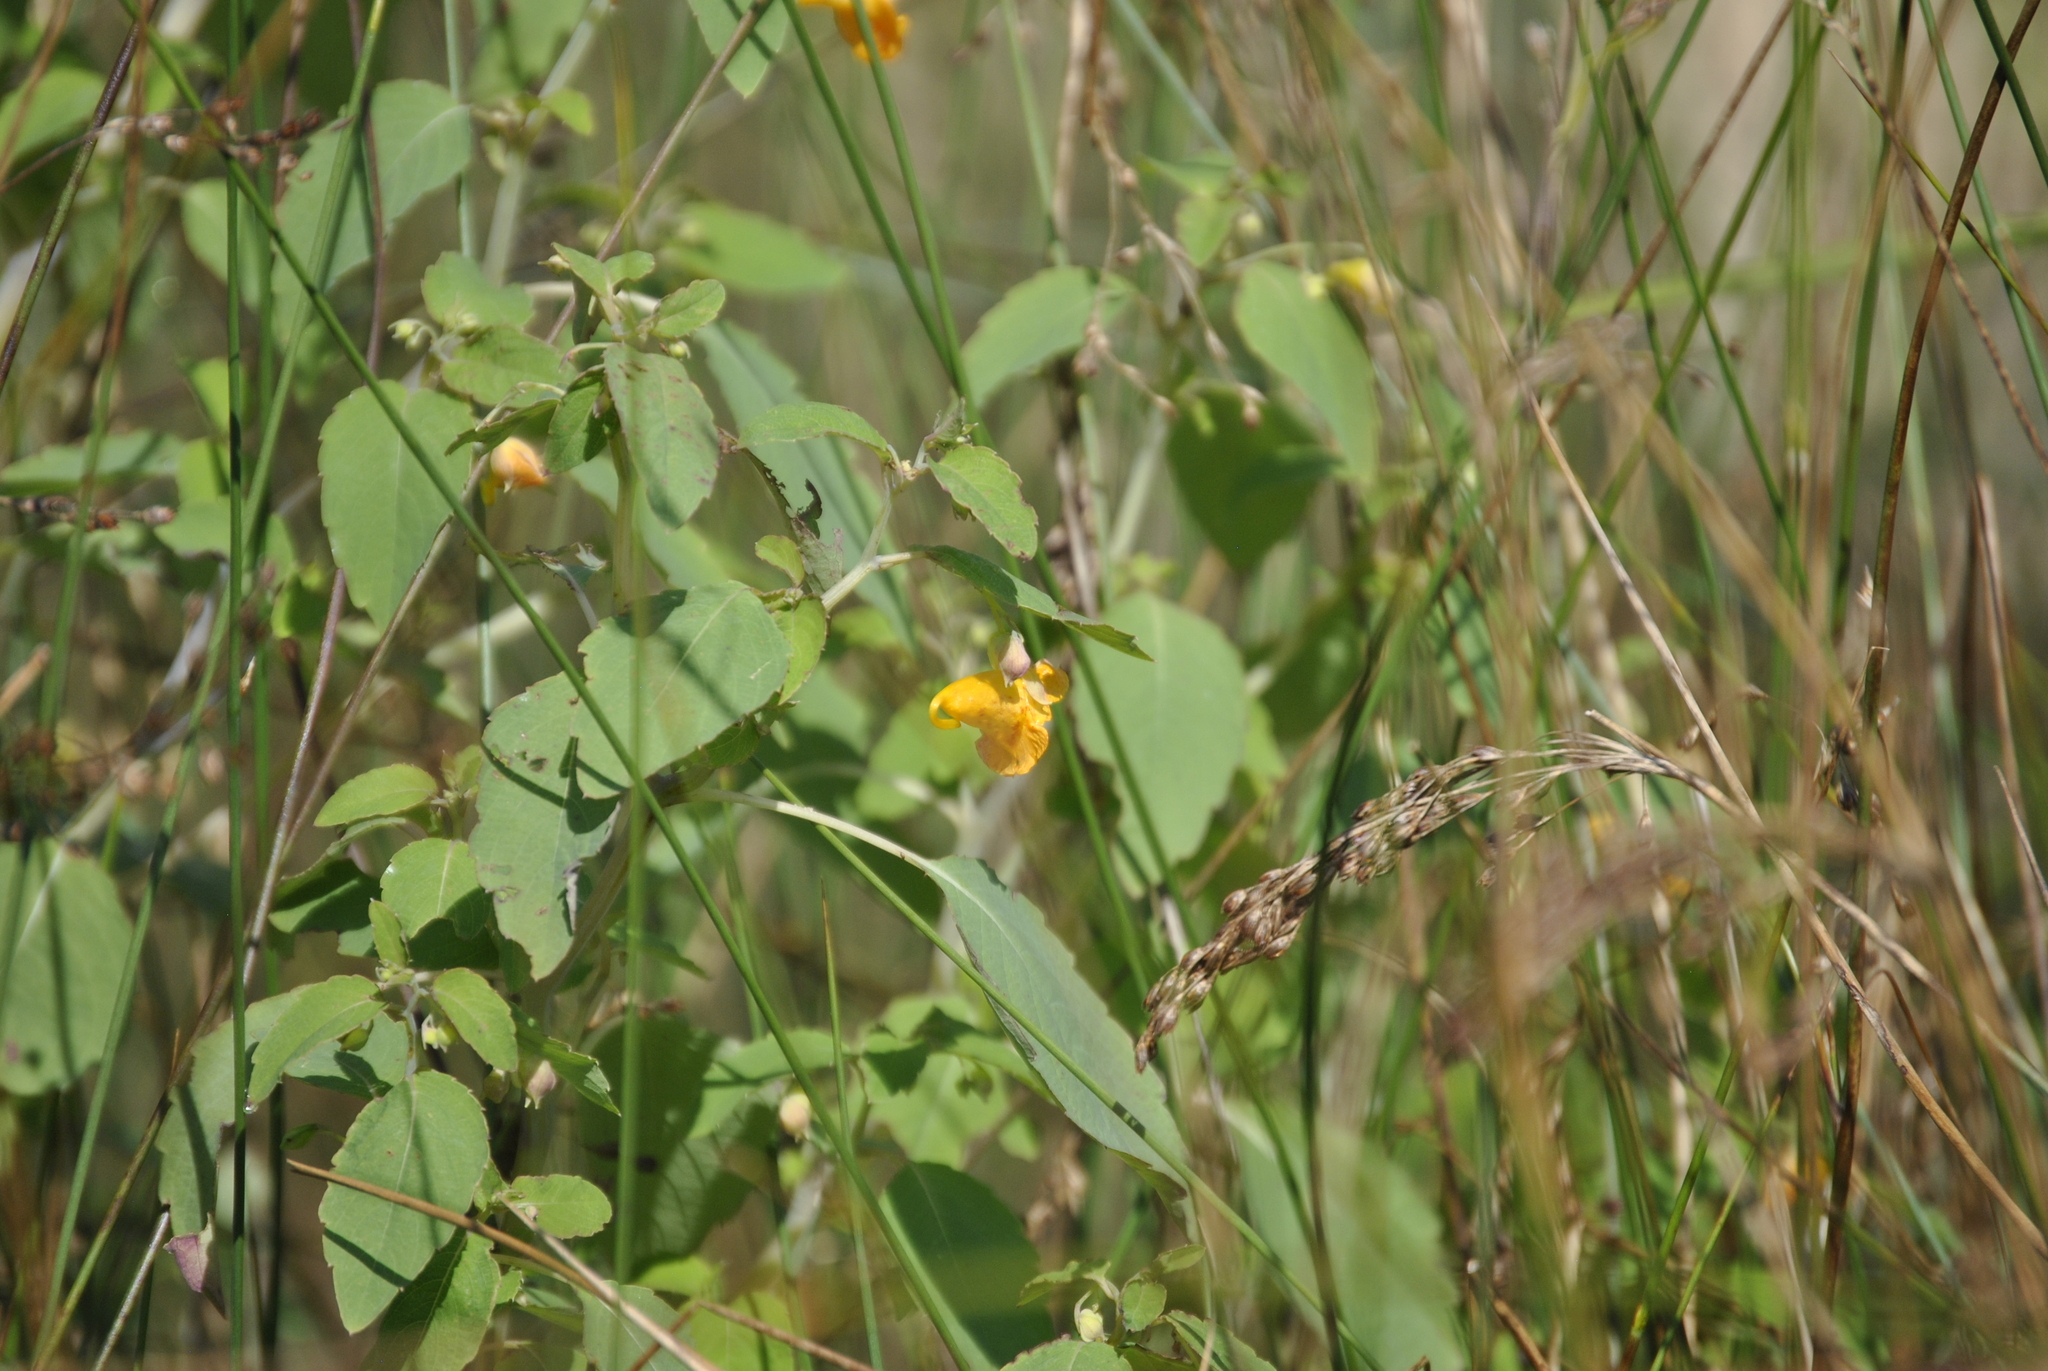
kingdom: Plantae
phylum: Tracheophyta
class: Magnoliopsida
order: Ericales
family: Balsaminaceae
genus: Impatiens
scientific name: Impatiens capensis
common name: Orange balsam
